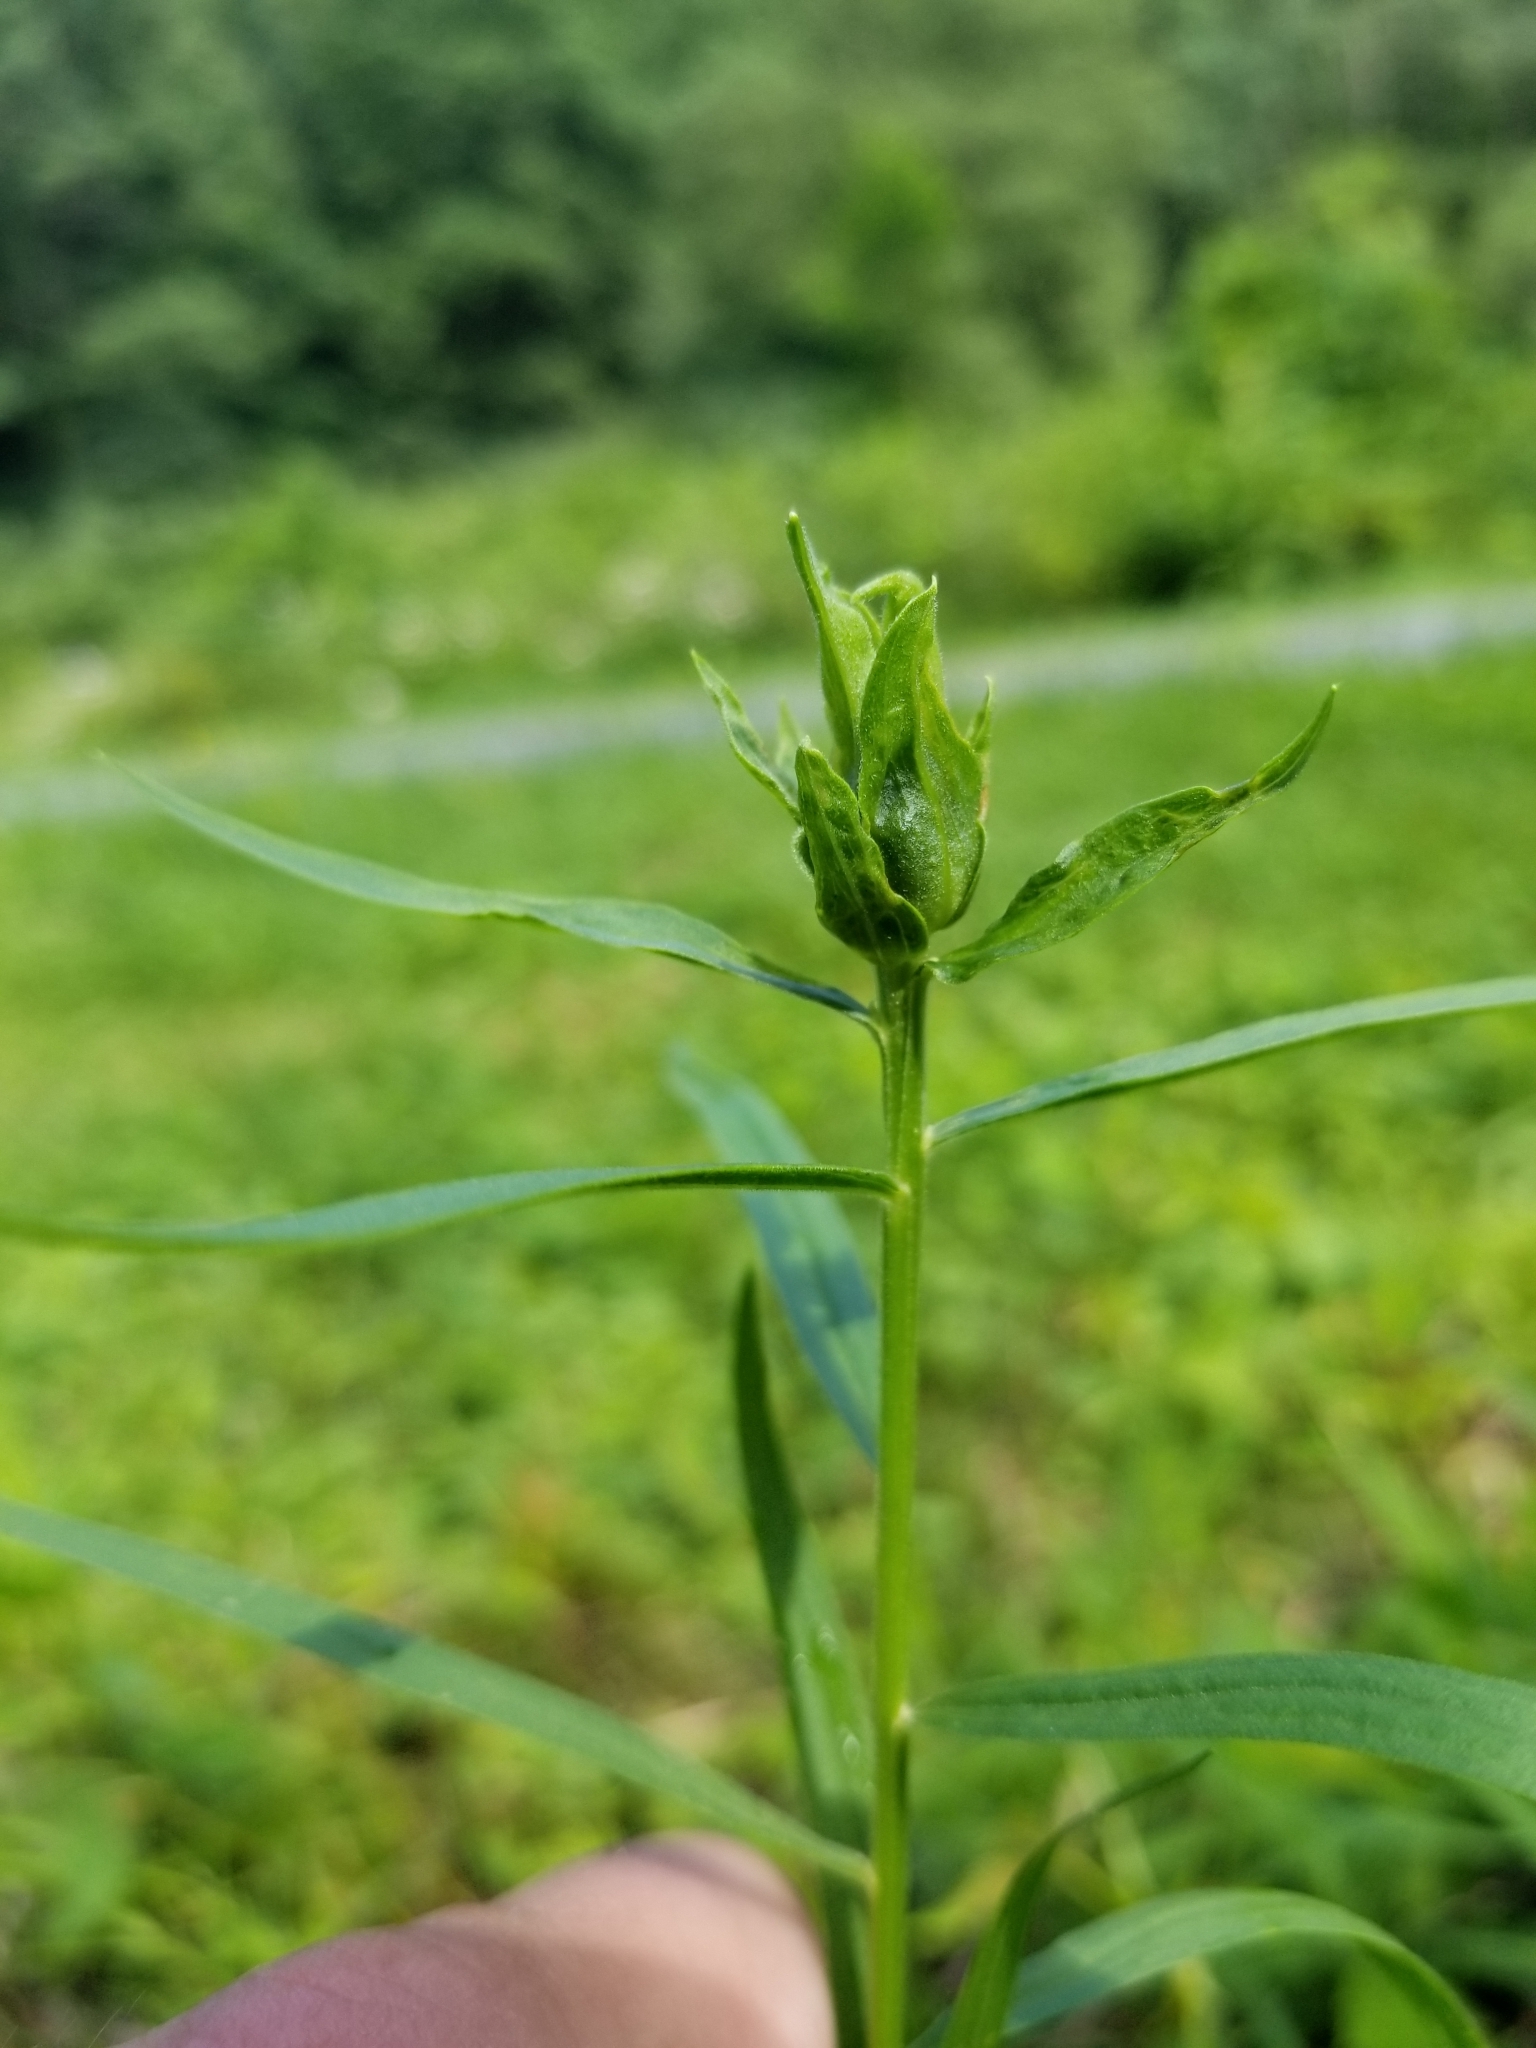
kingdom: Animalia
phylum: Arthropoda
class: Insecta
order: Diptera
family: Cecidomyiidae
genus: Asphondylia
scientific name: Asphondylia pseudorosa
